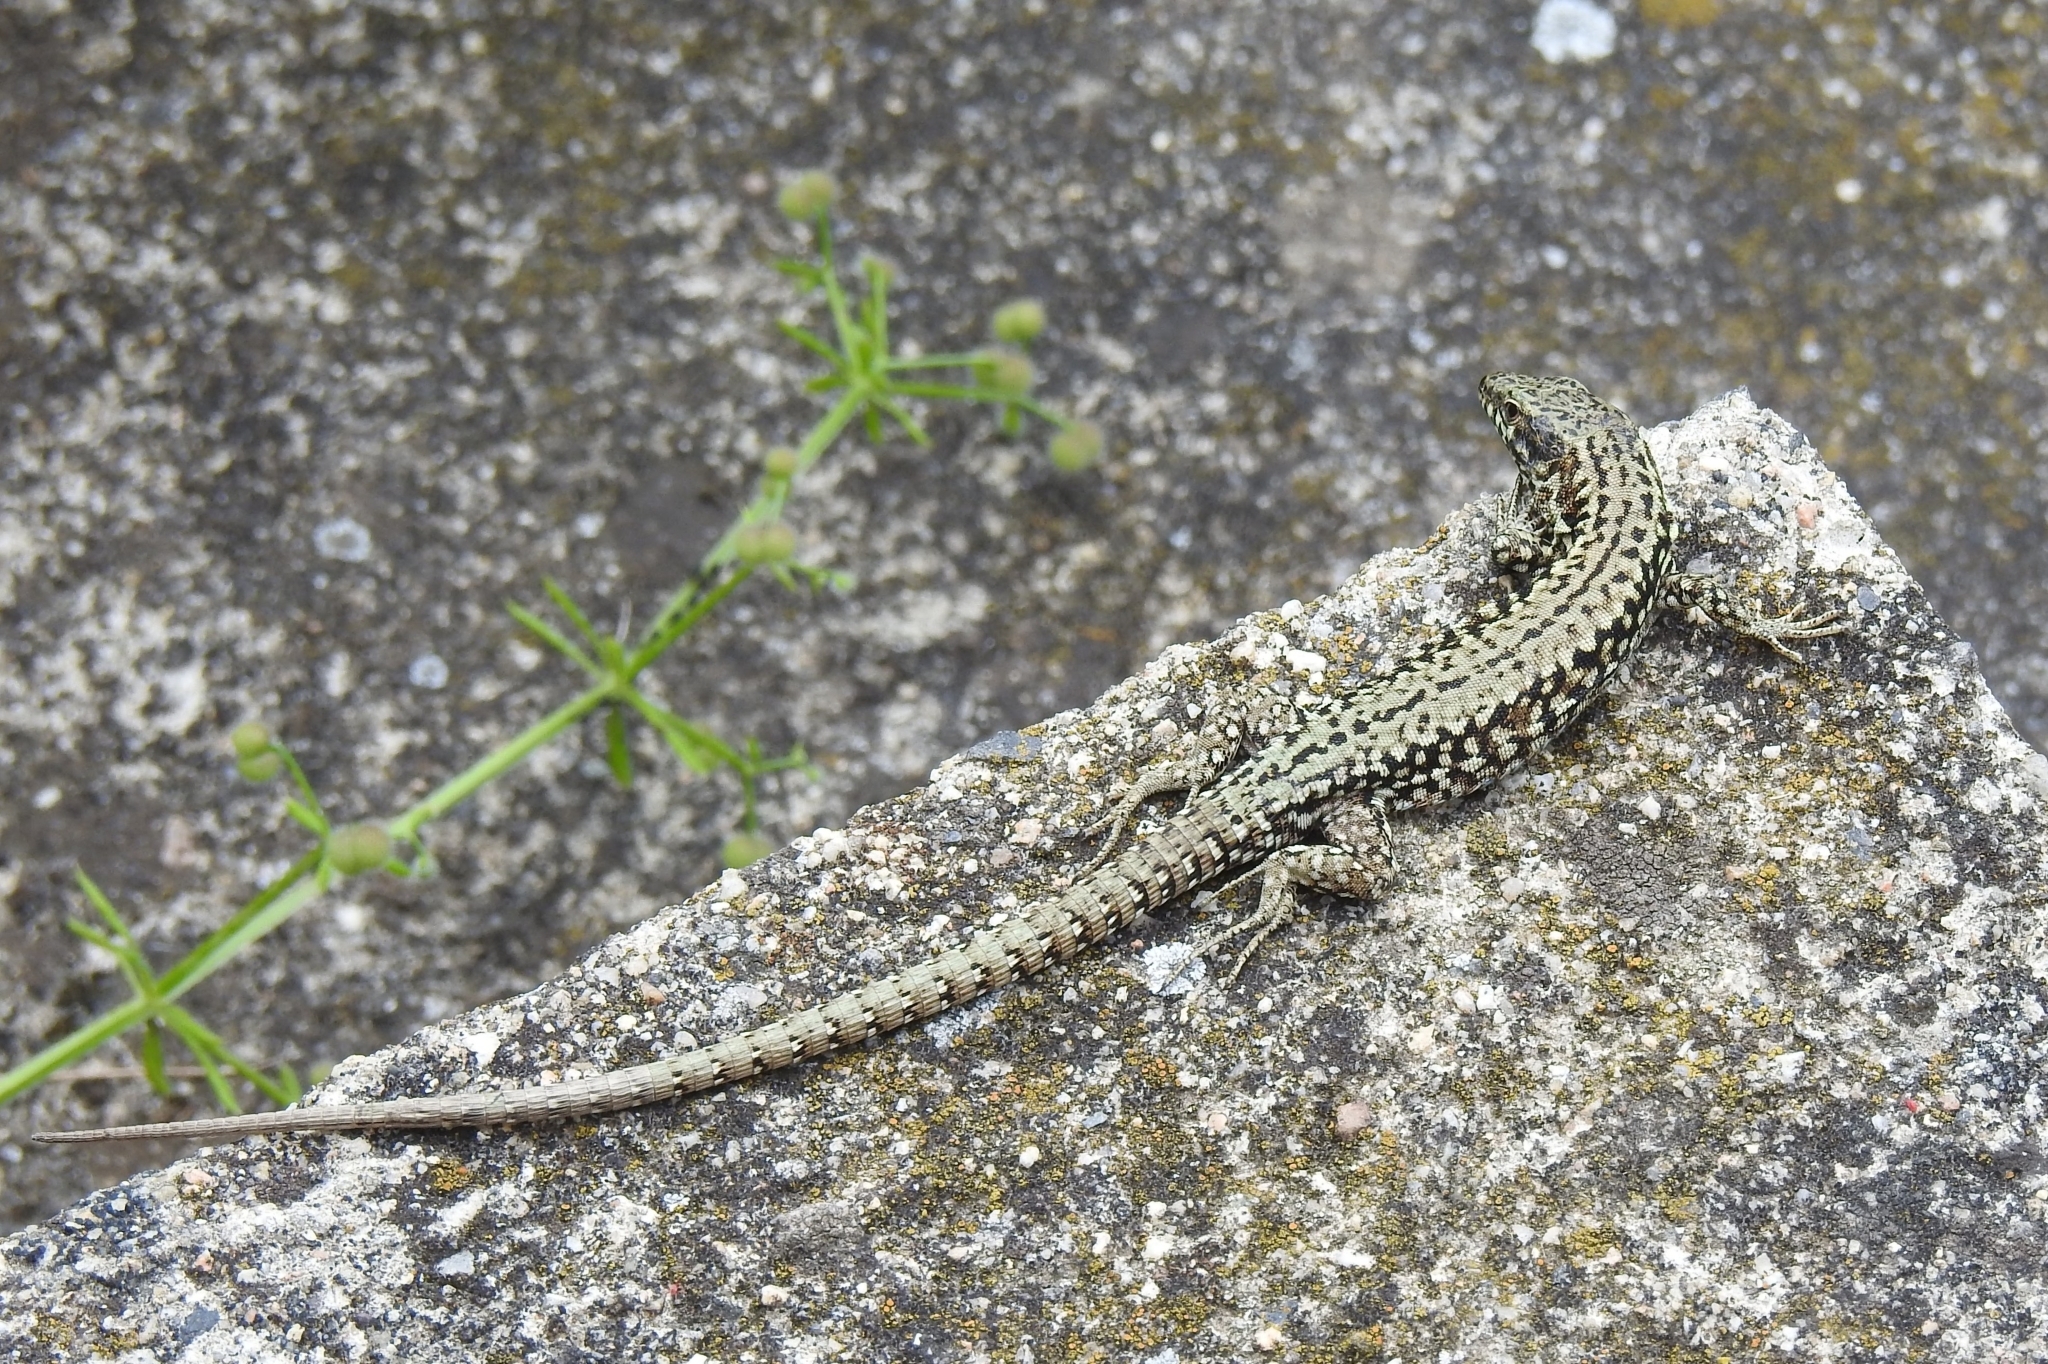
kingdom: Animalia
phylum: Chordata
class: Squamata
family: Lacertidae
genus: Podarcis
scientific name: Podarcis muralis
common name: Common wall lizard
